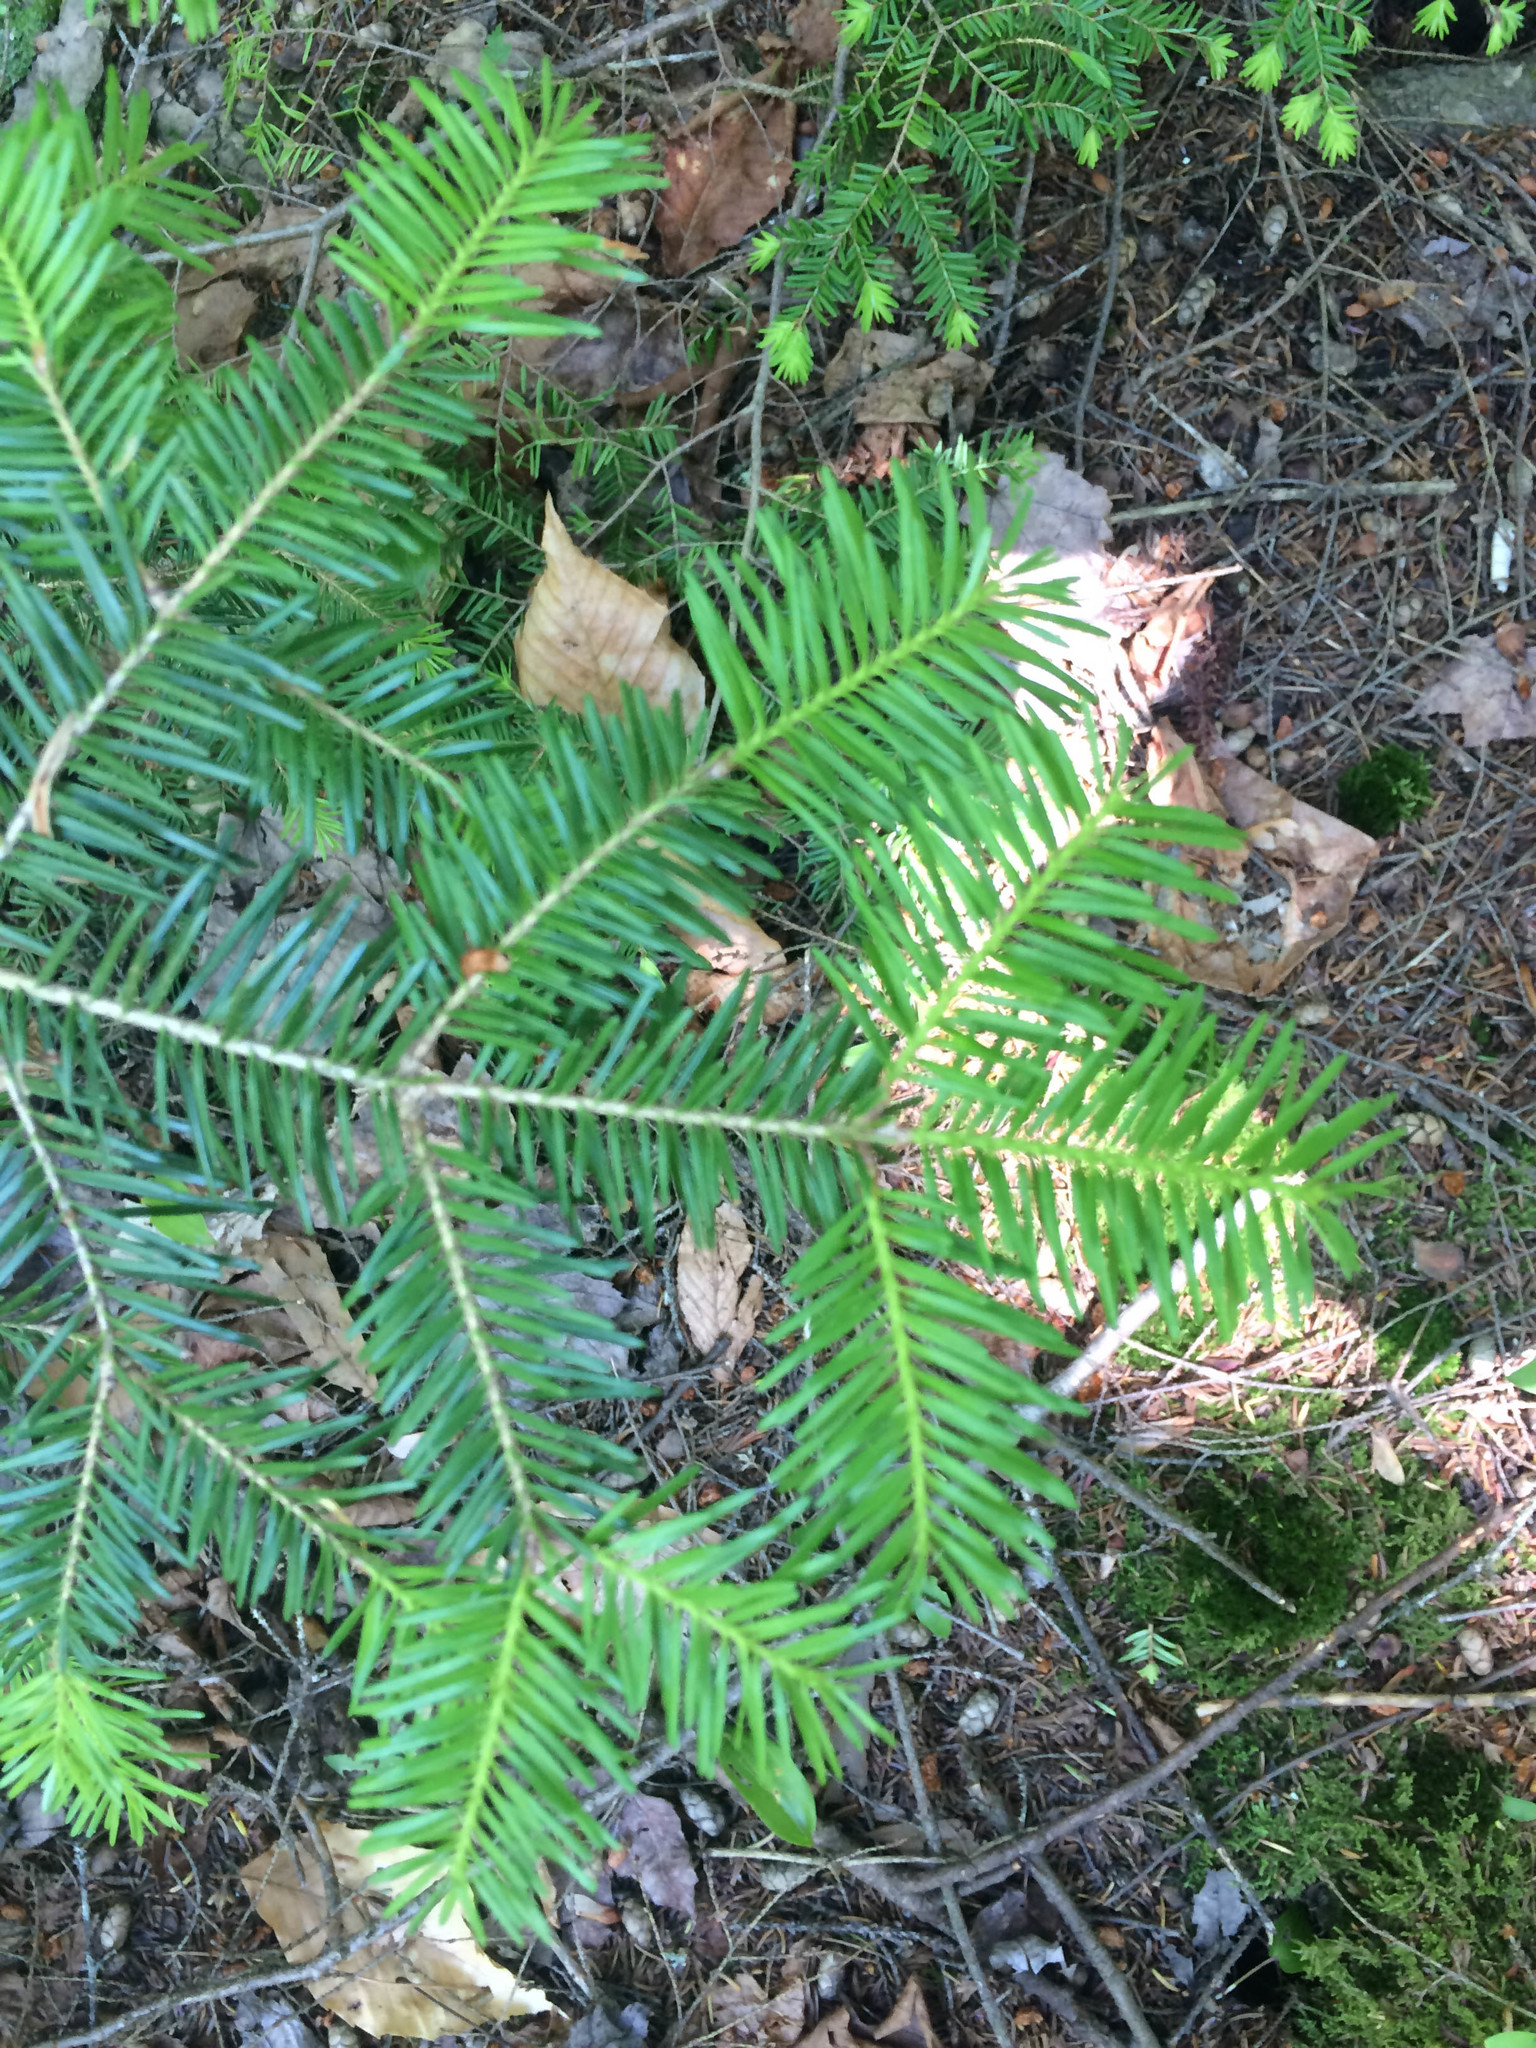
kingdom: Plantae
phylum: Tracheophyta
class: Pinopsida
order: Pinales
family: Pinaceae
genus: Abies
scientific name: Abies balsamea
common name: Balsam fir
